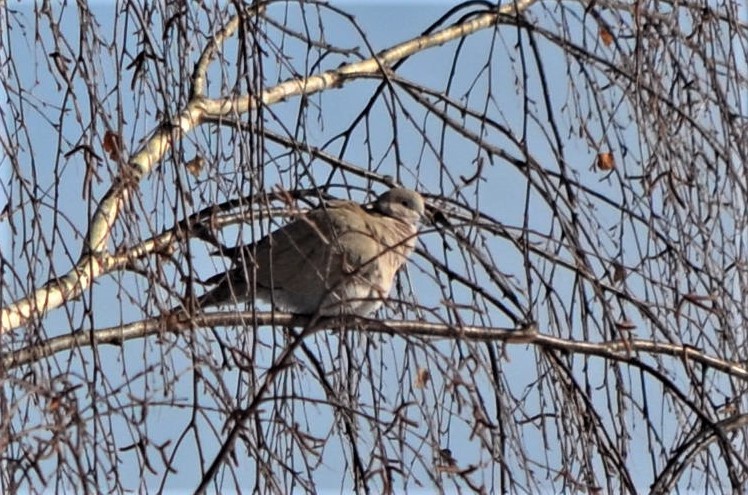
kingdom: Animalia
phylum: Chordata
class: Aves
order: Columbiformes
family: Columbidae
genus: Streptopelia
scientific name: Streptopelia decaocto
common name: Eurasian collared dove
